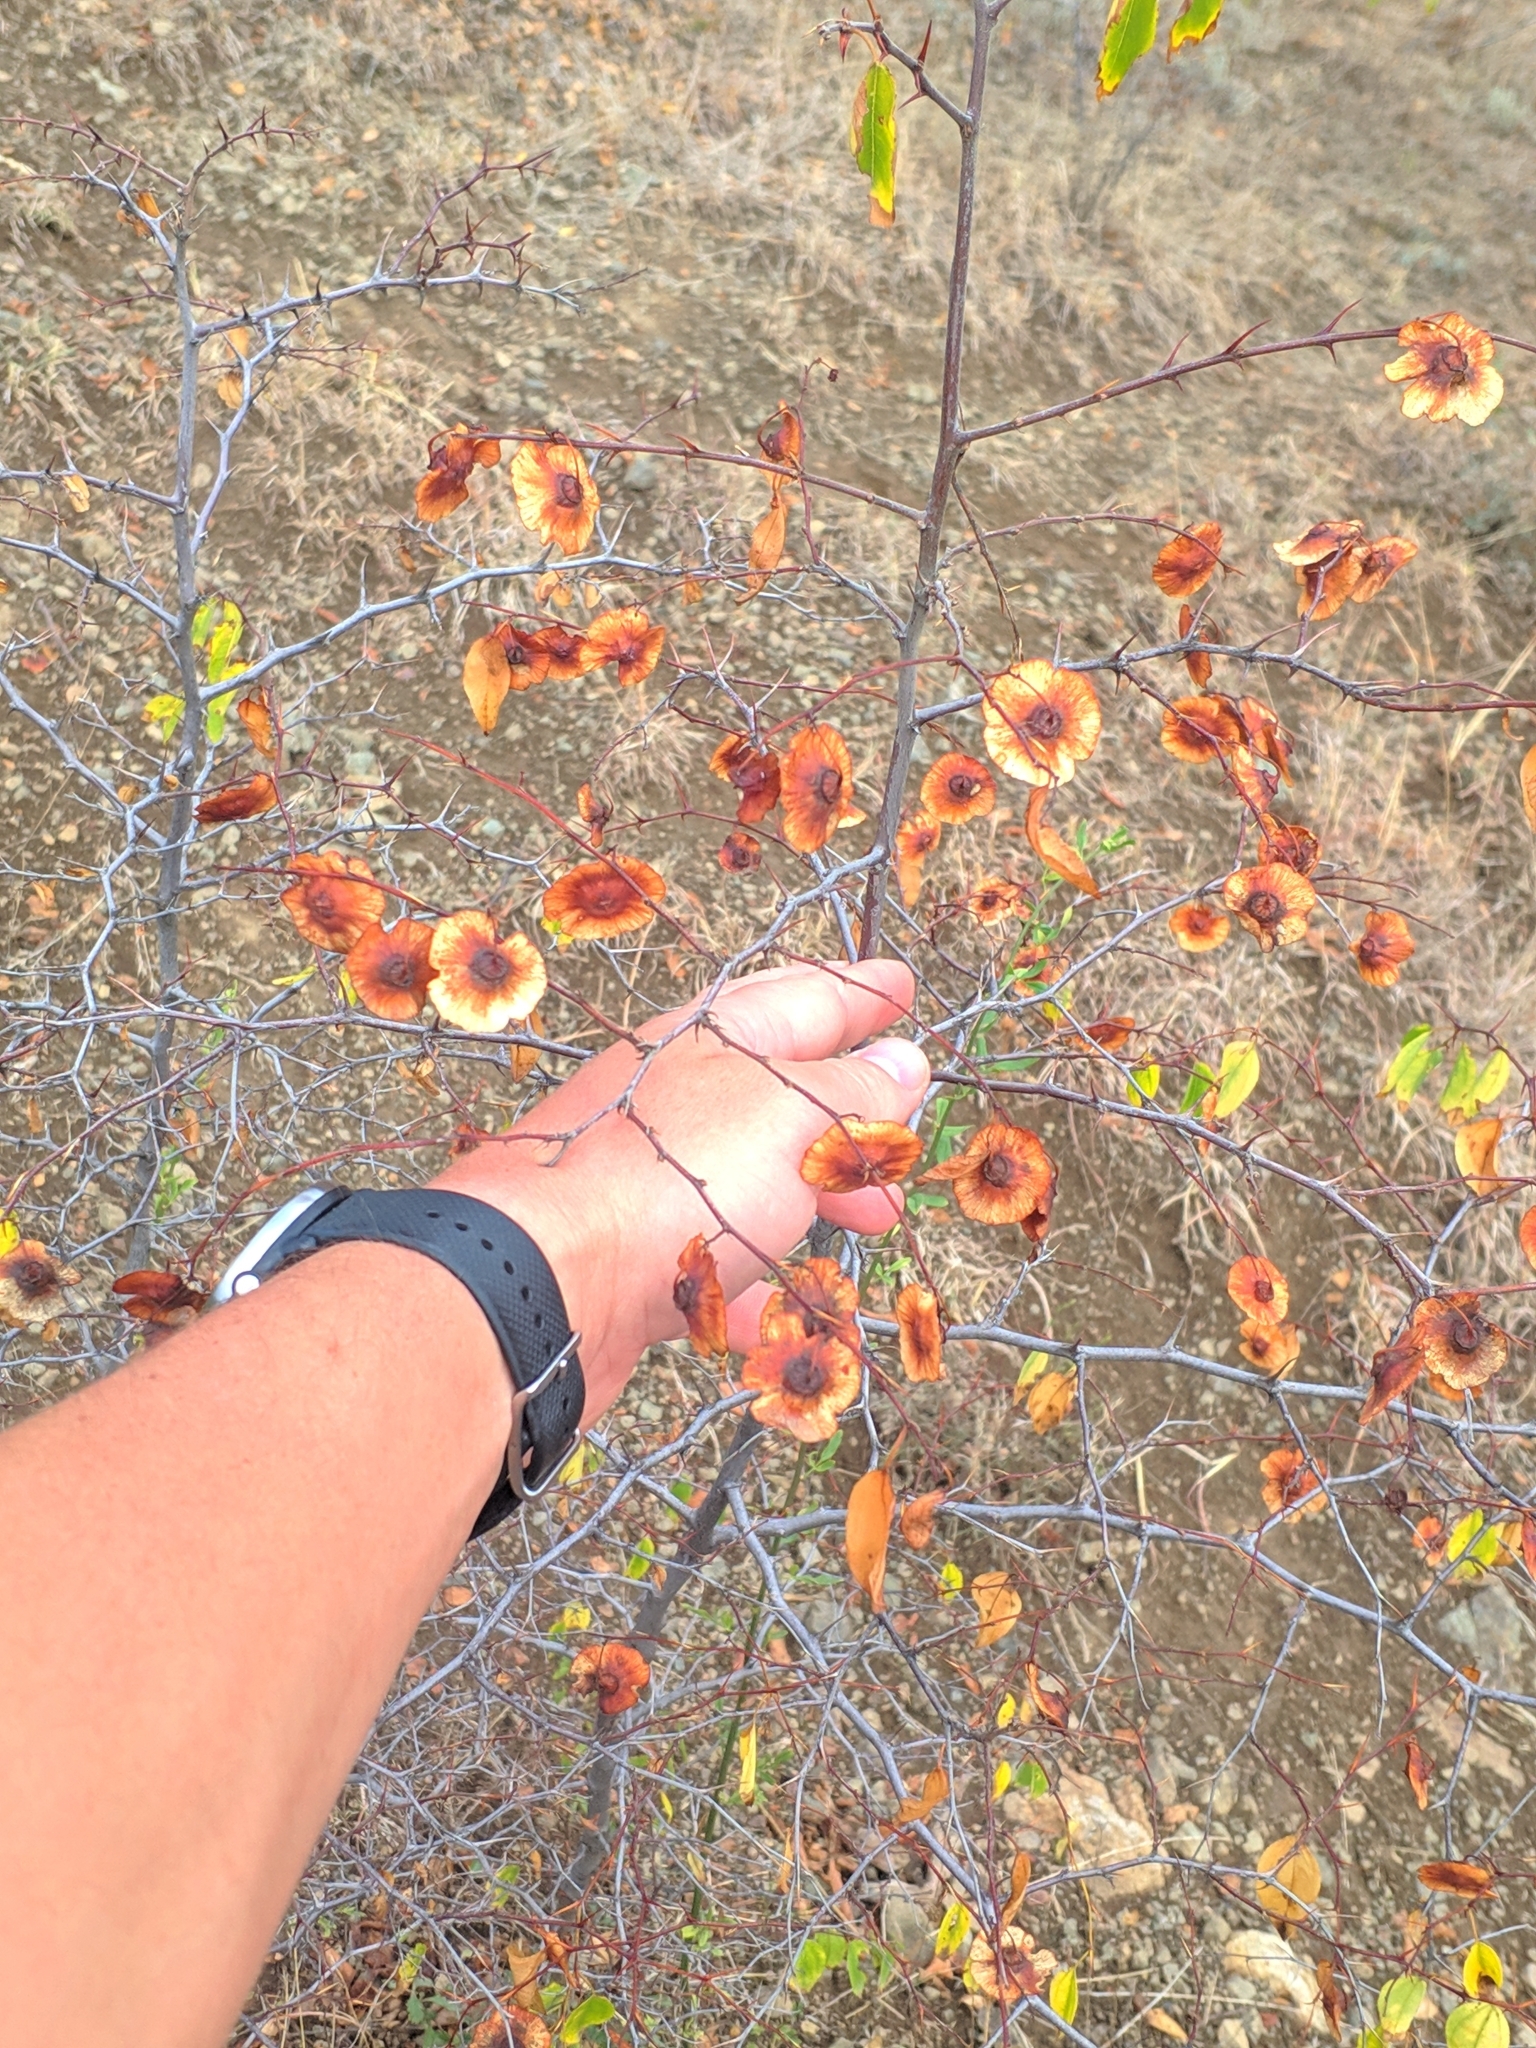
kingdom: Plantae
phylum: Tracheophyta
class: Magnoliopsida
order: Rosales
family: Rhamnaceae
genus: Paliurus
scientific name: Paliurus spina-christi
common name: Jeruselem thorn
